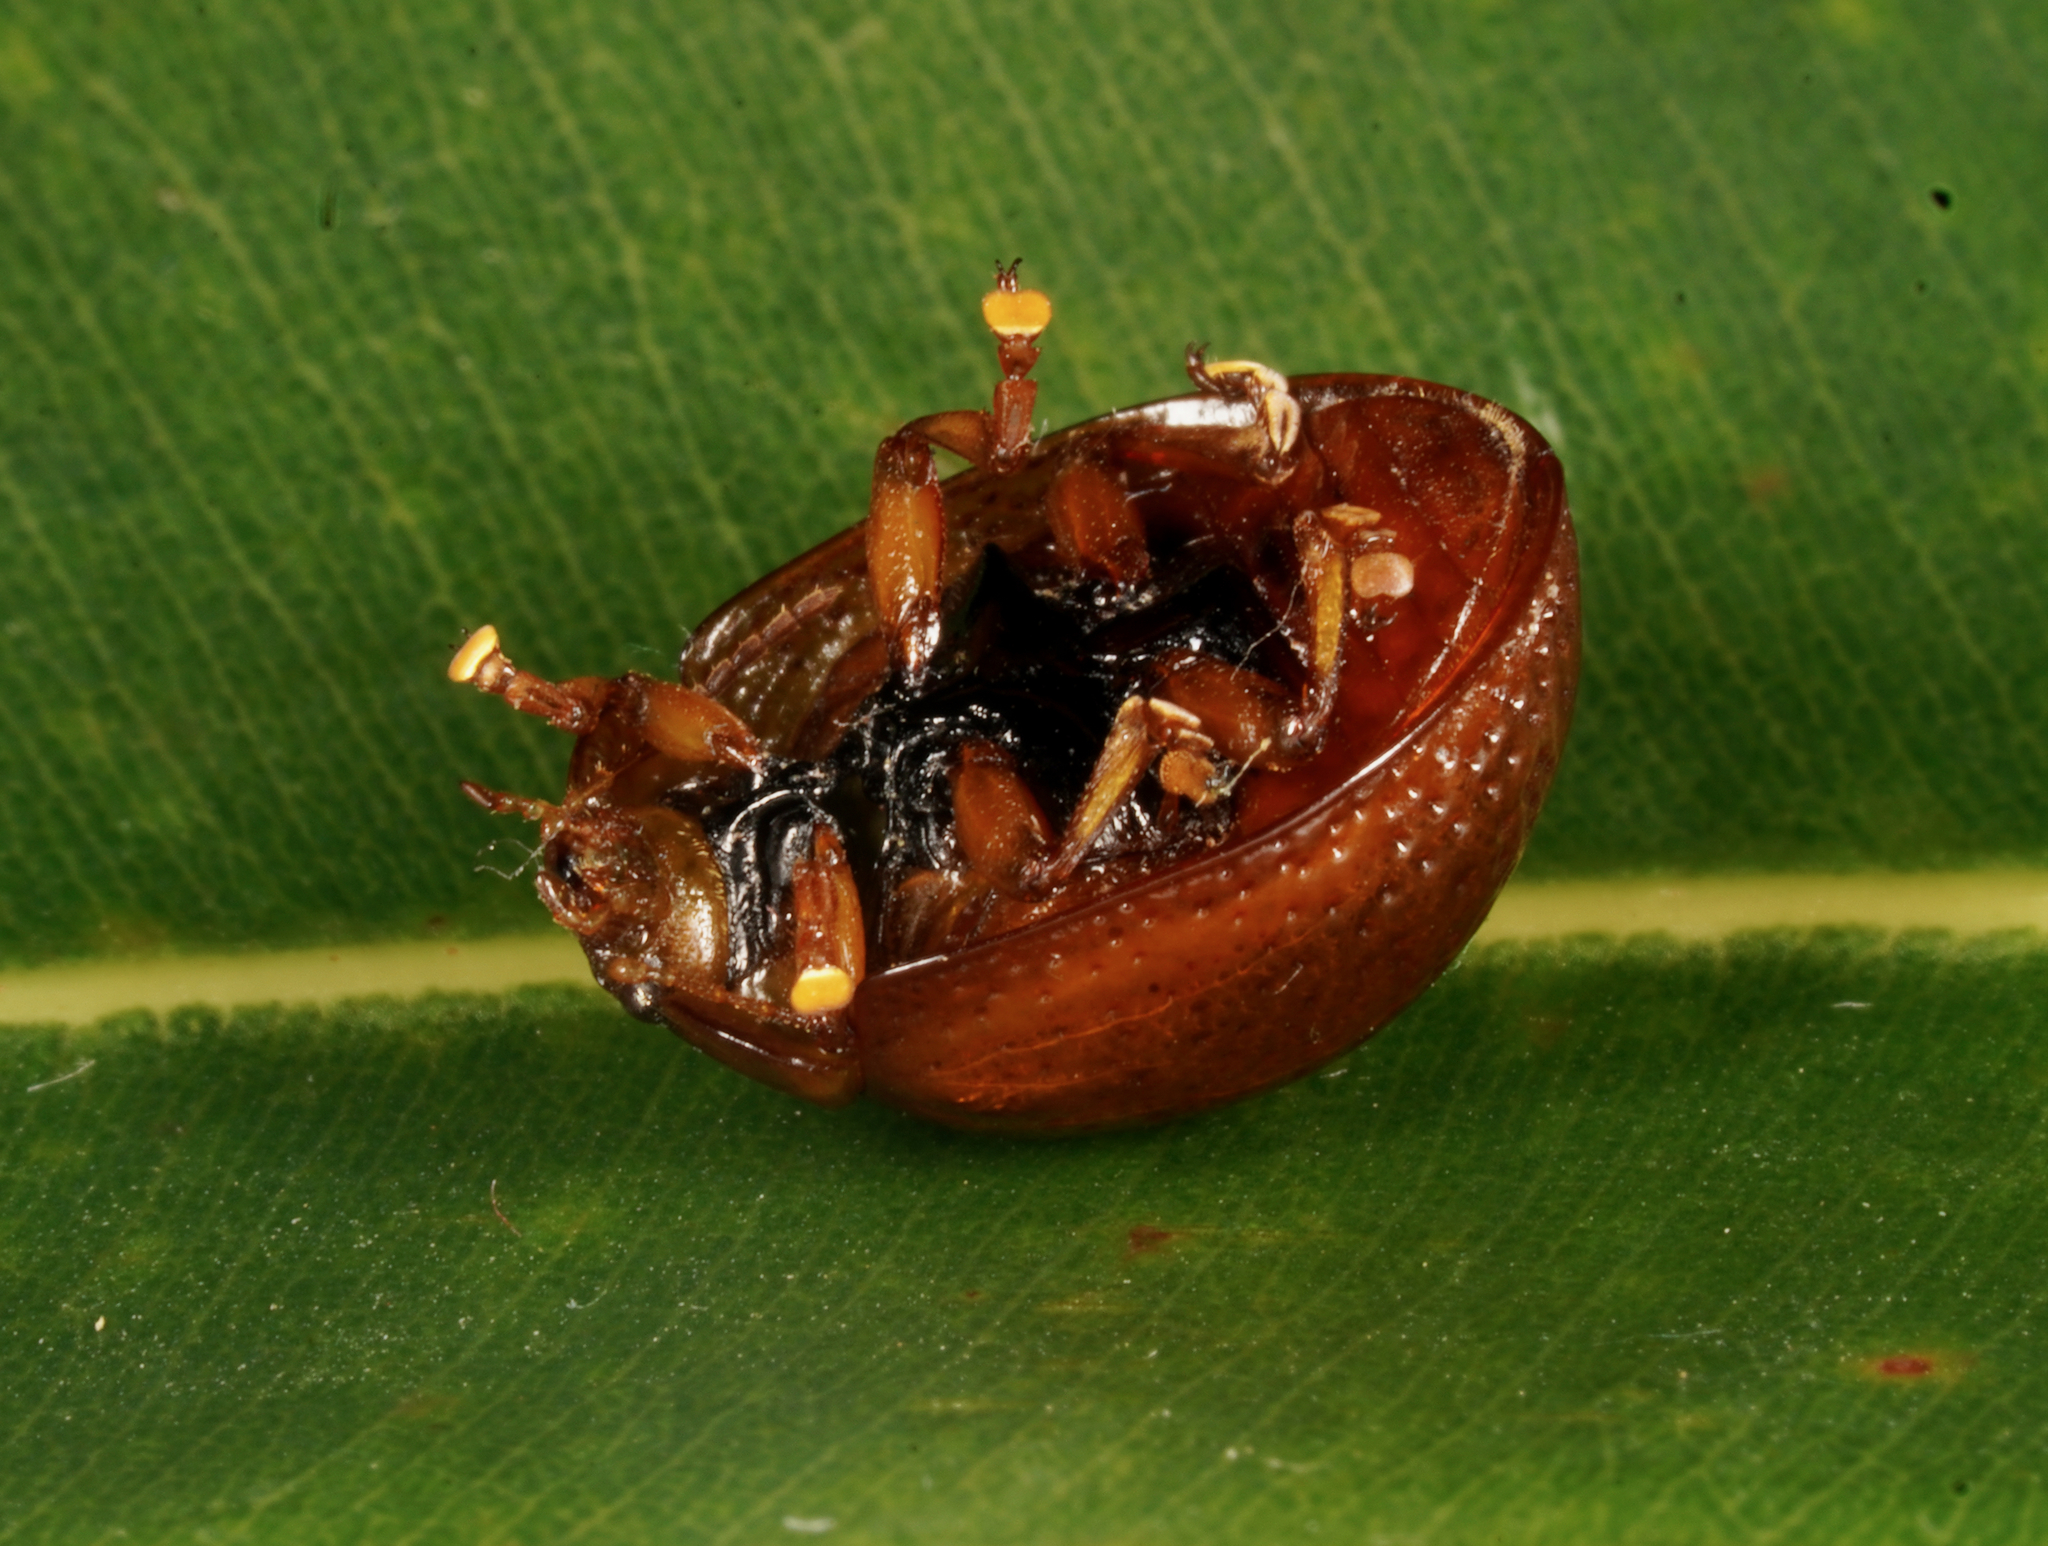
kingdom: Animalia
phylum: Arthropoda
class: Insecta
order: Coleoptera
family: Chrysomelidae
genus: Dicranosterna
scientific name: Dicranosterna
